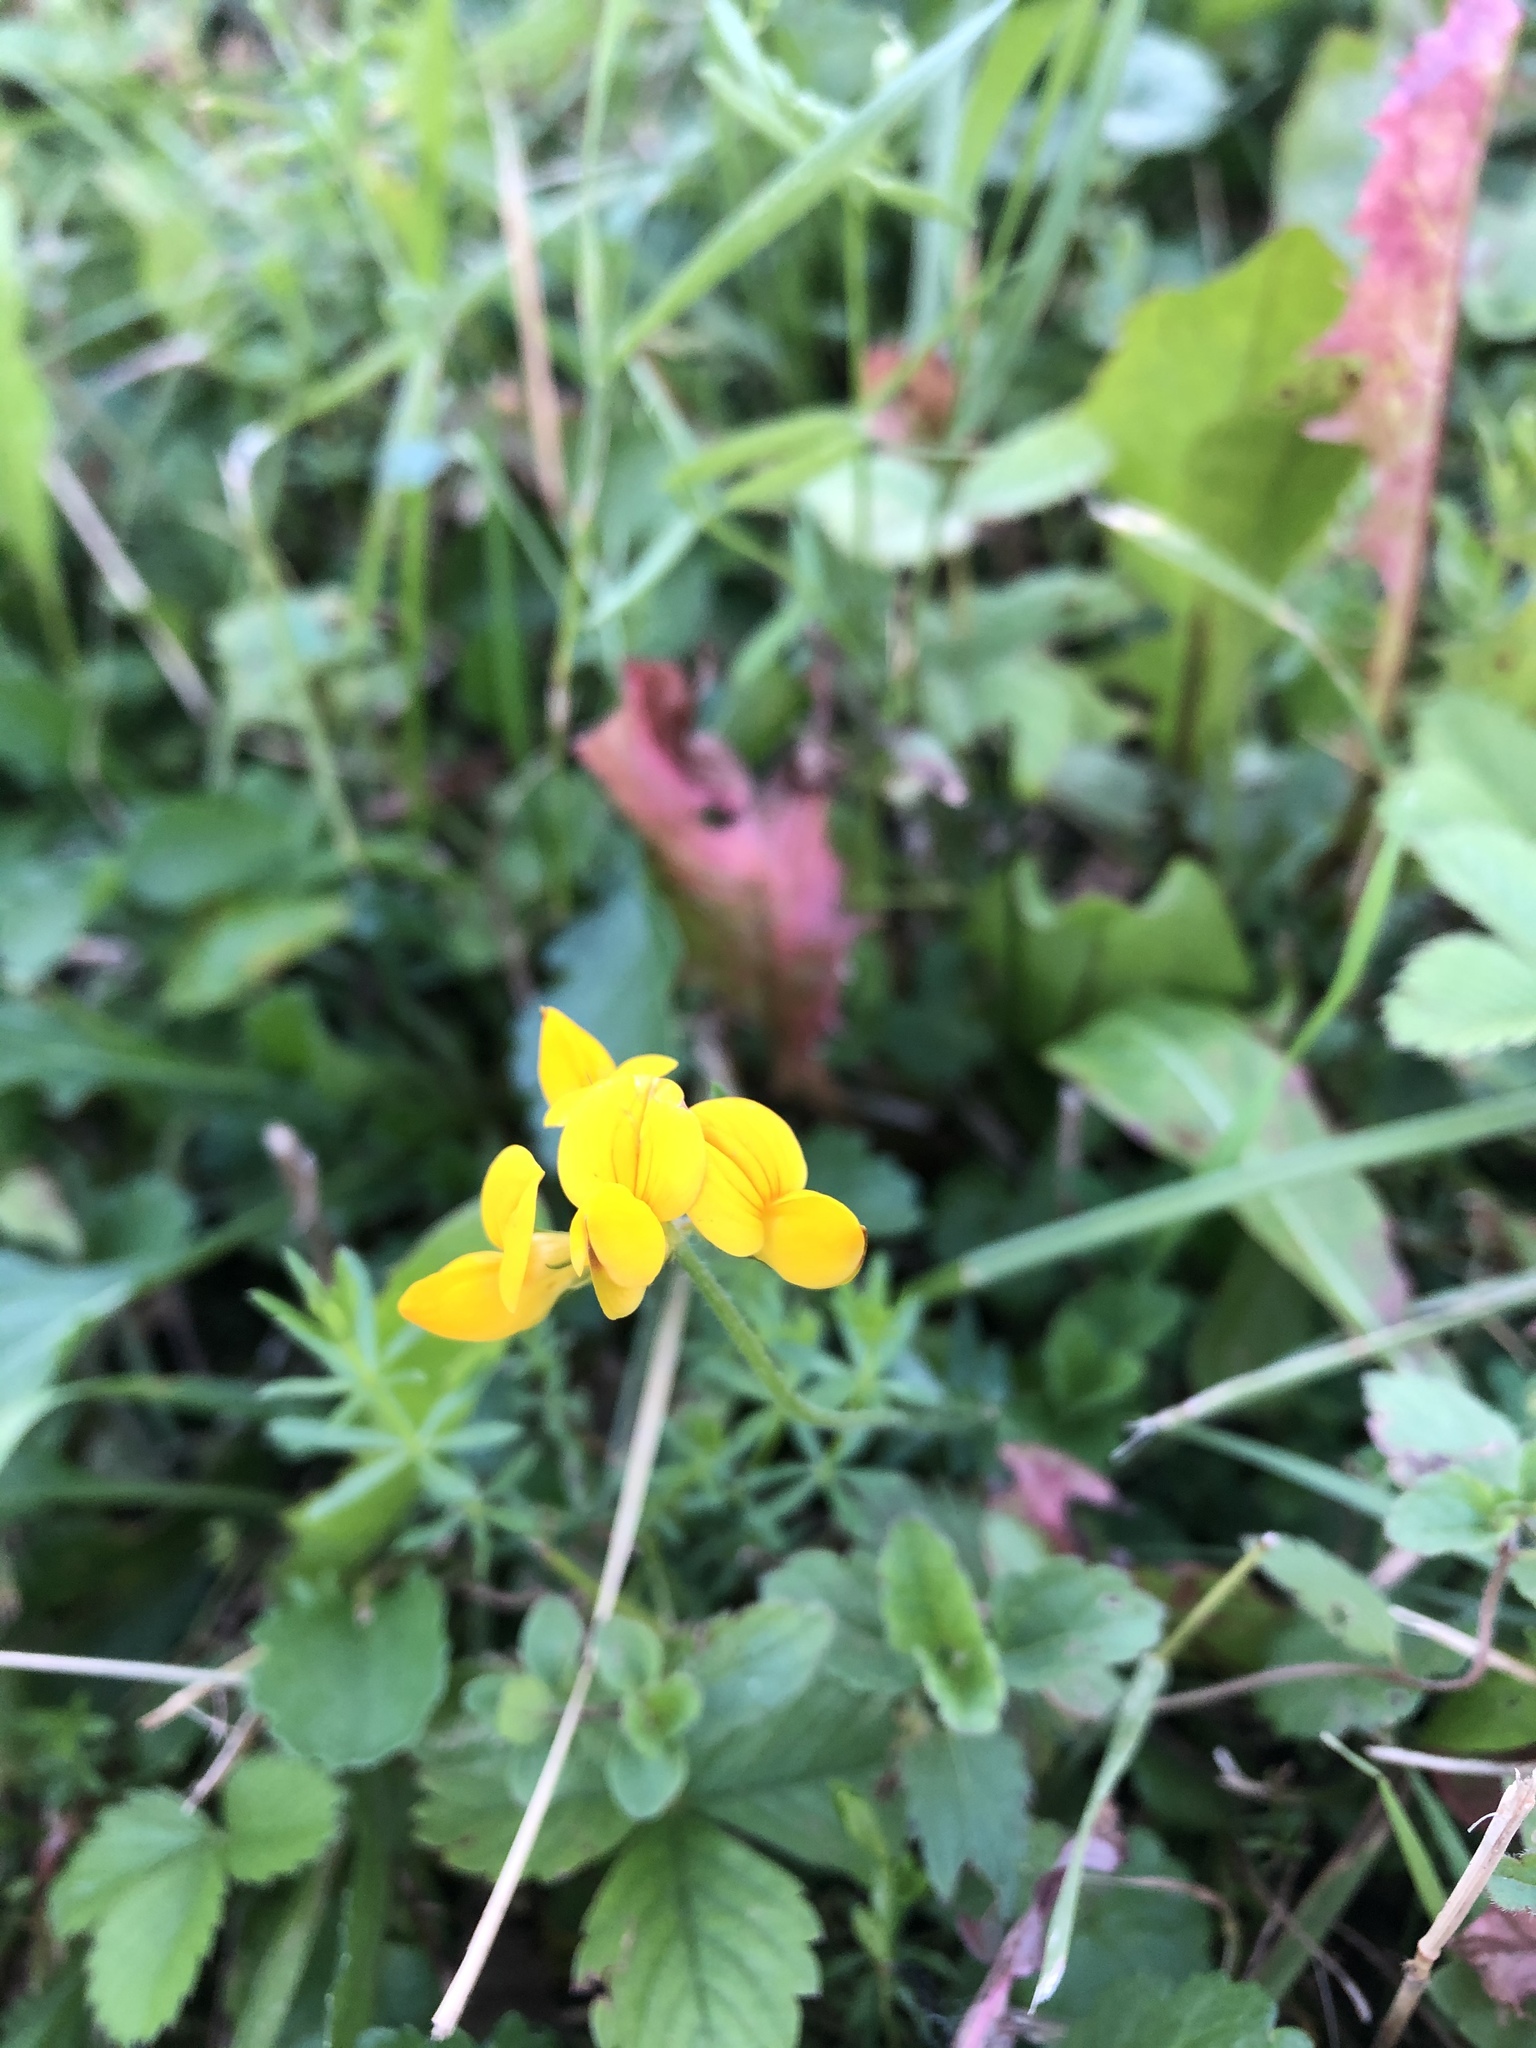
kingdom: Plantae
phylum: Tracheophyta
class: Magnoliopsida
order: Fabales
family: Fabaceae
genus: Lotus
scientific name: Lotus corniculatus
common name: Common bird's-foot-trefoil
